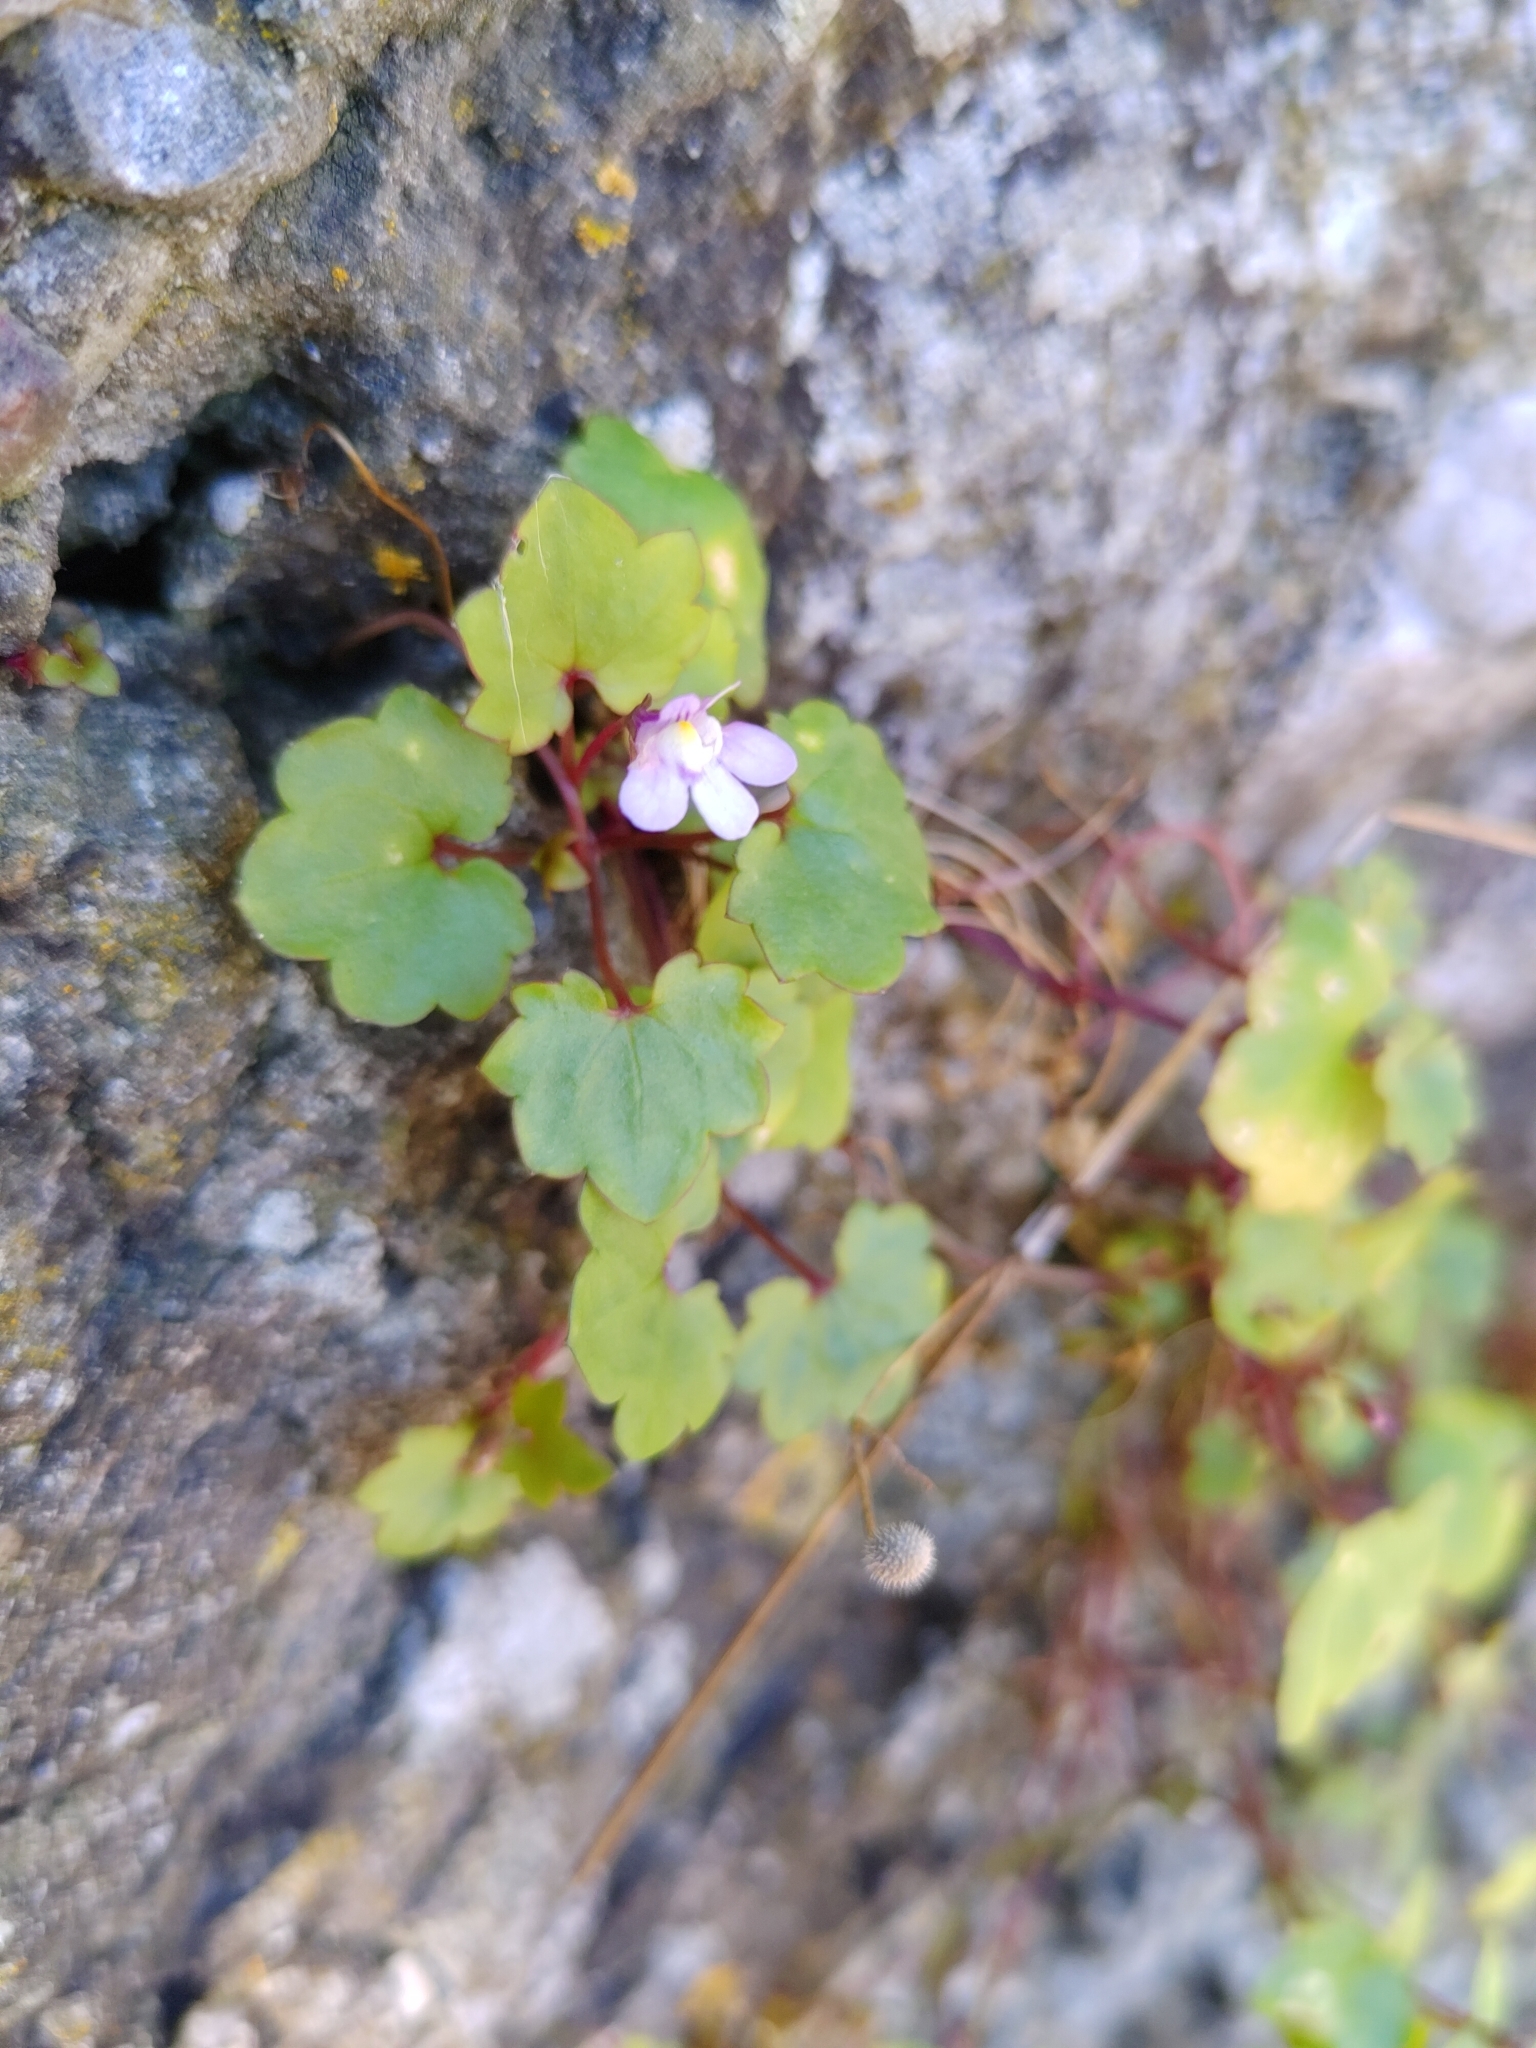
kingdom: Plantae
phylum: Tracheophyta
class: Magnoliopsida
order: Lamiales
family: Plantaginaceae
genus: Cymbalaria
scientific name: Cymbalaria muralis
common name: Ivy-leaved toadflax
